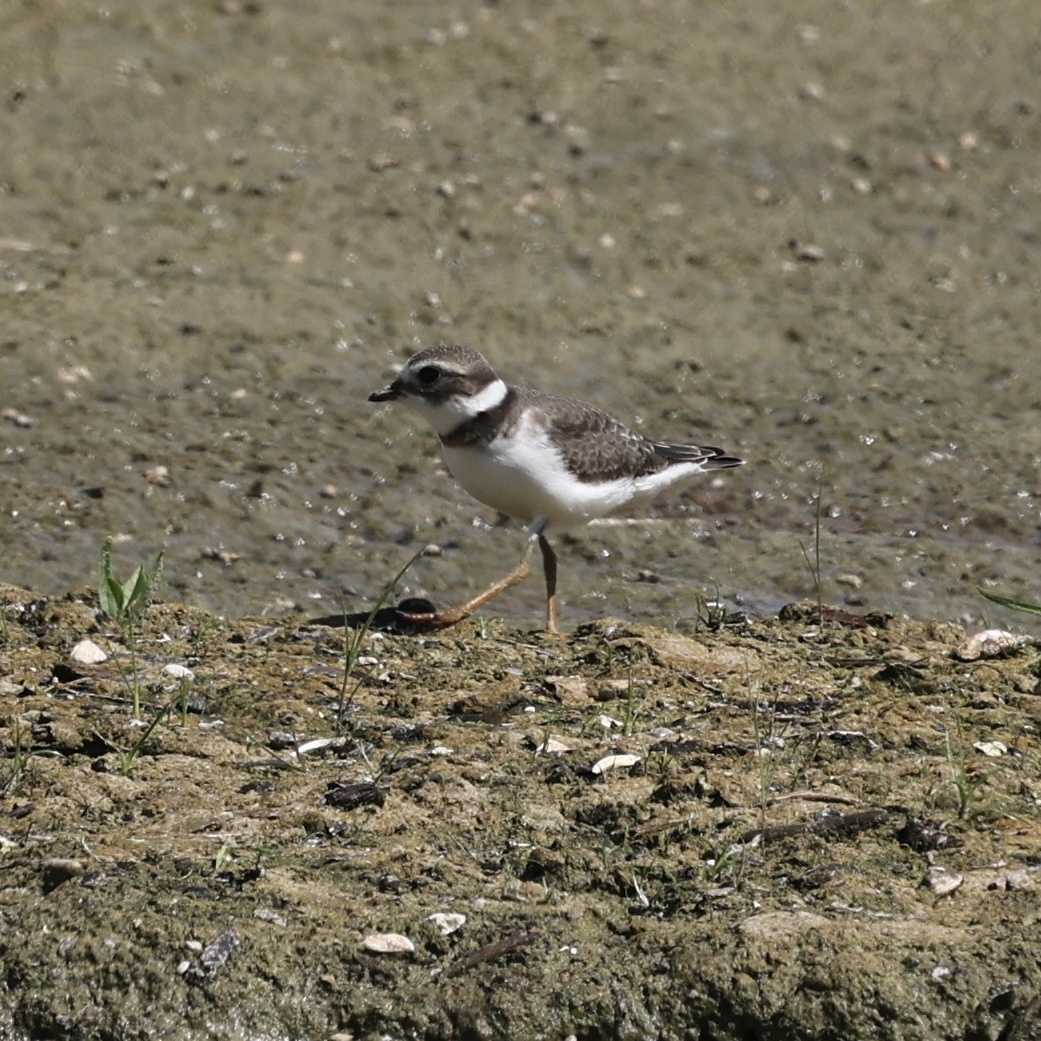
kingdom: Animalia
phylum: Chordata
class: Aves
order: Charadriiformes
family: Charadriidae
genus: Charadrius
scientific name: Charadrius semipalmatus
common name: Semipalmated plover
